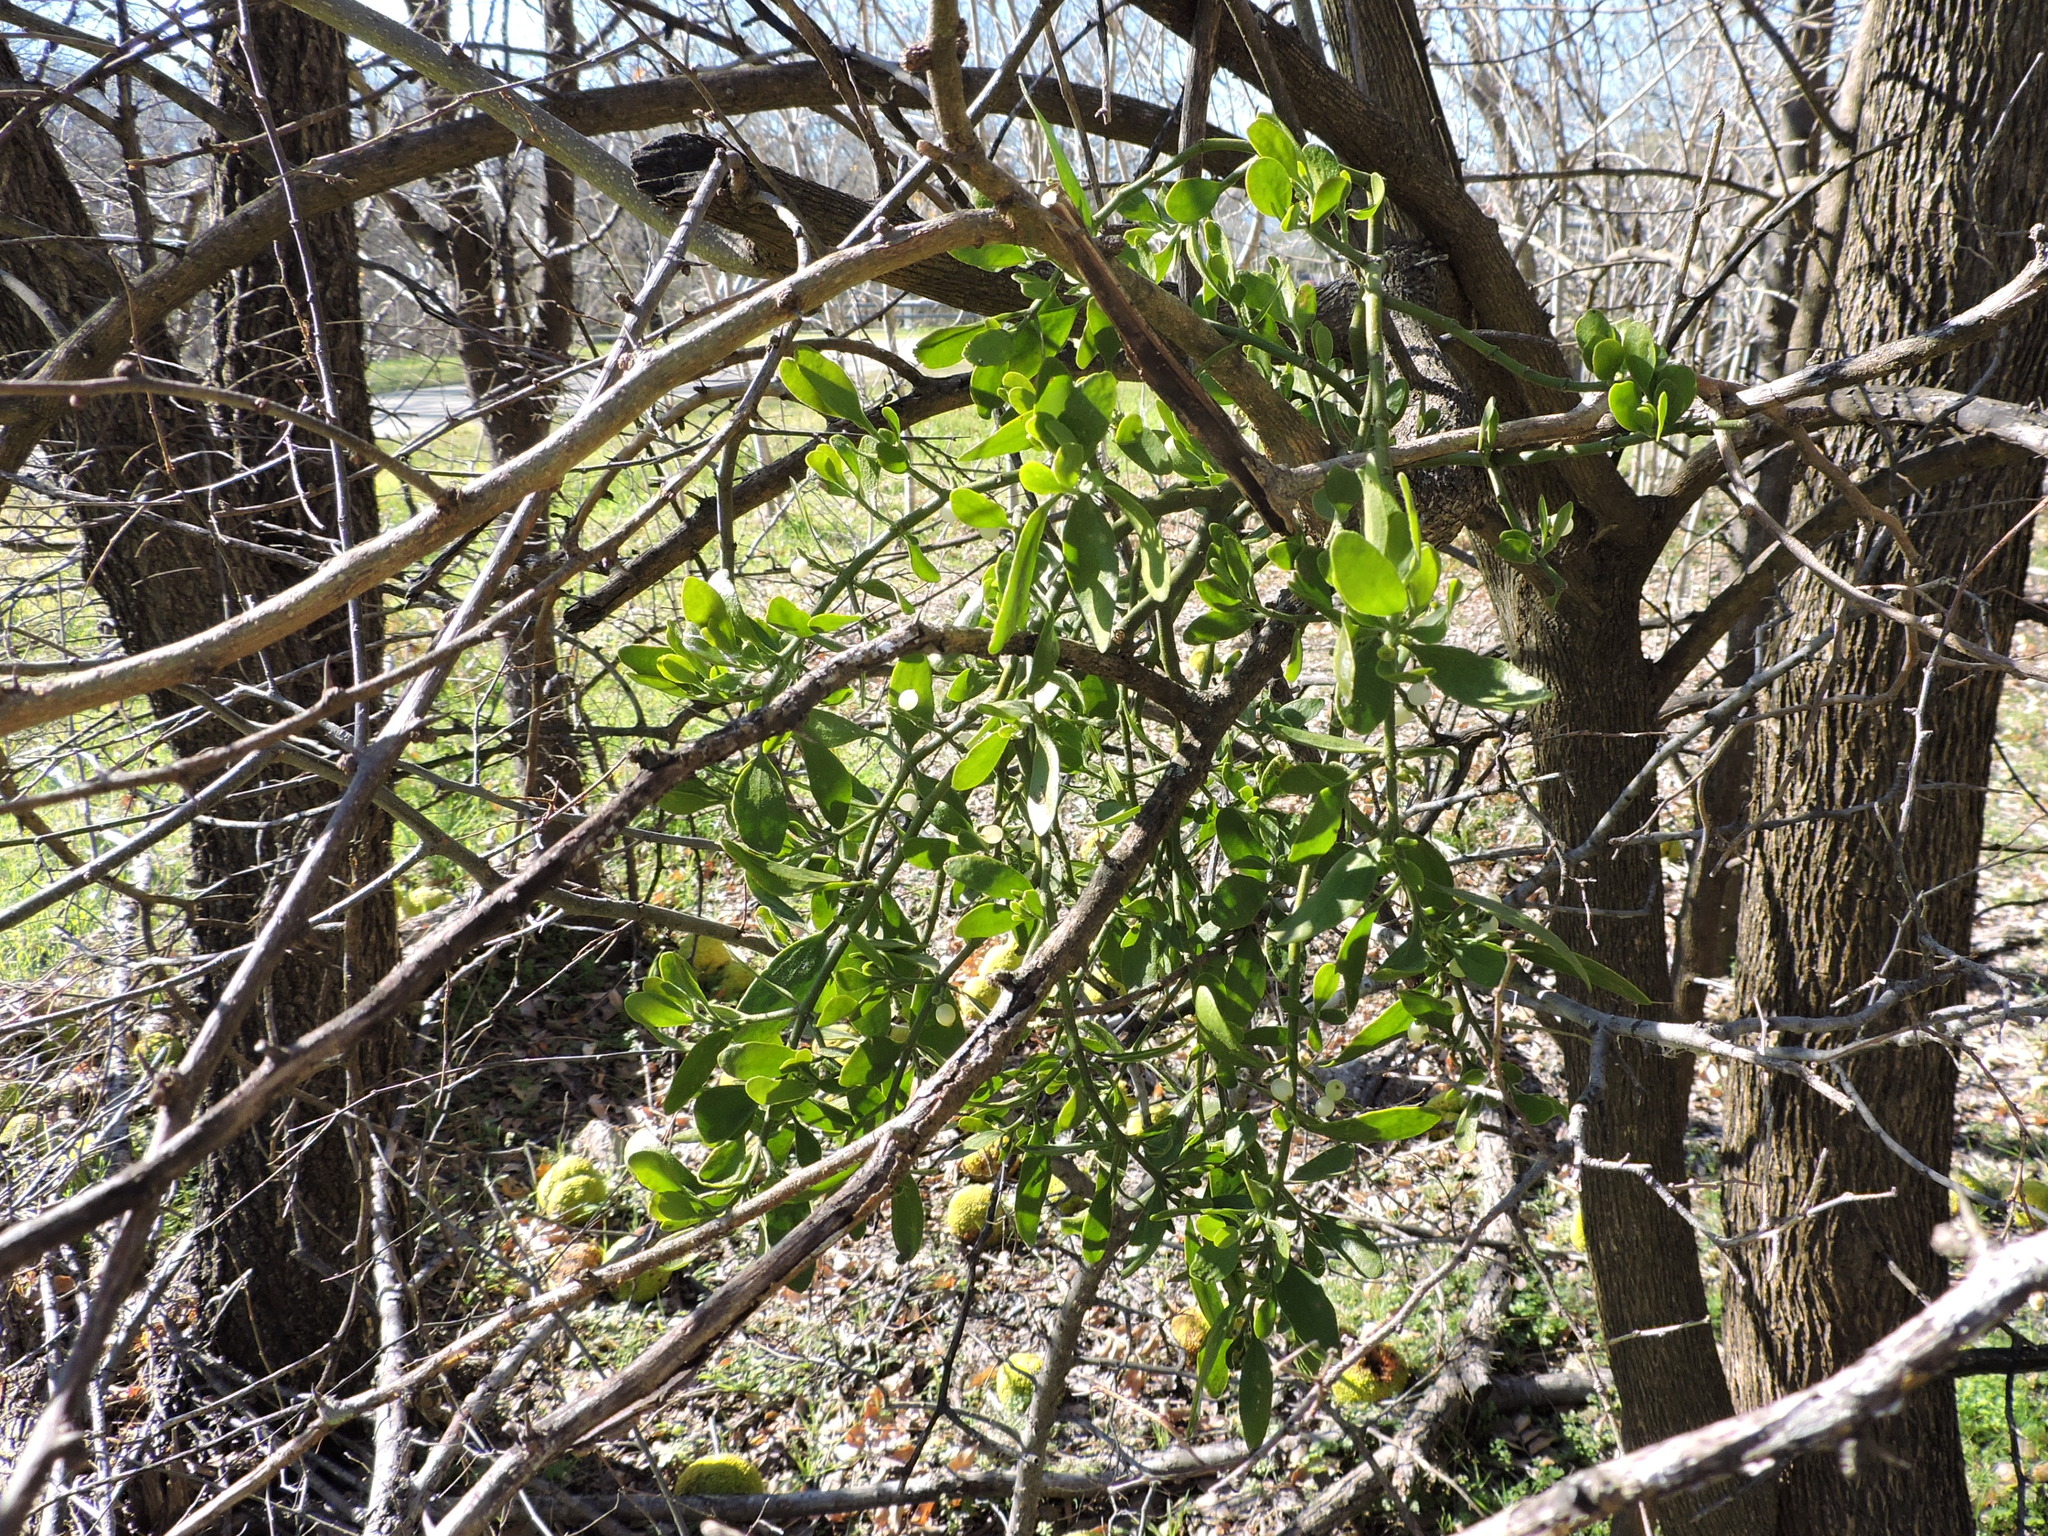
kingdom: Plantae
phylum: Tracheophyta
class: Magnoliopsida
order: Santalales
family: Viscaceae
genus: Phoradendron
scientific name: Phoradendron leucarpum
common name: Pacific mistletoe
